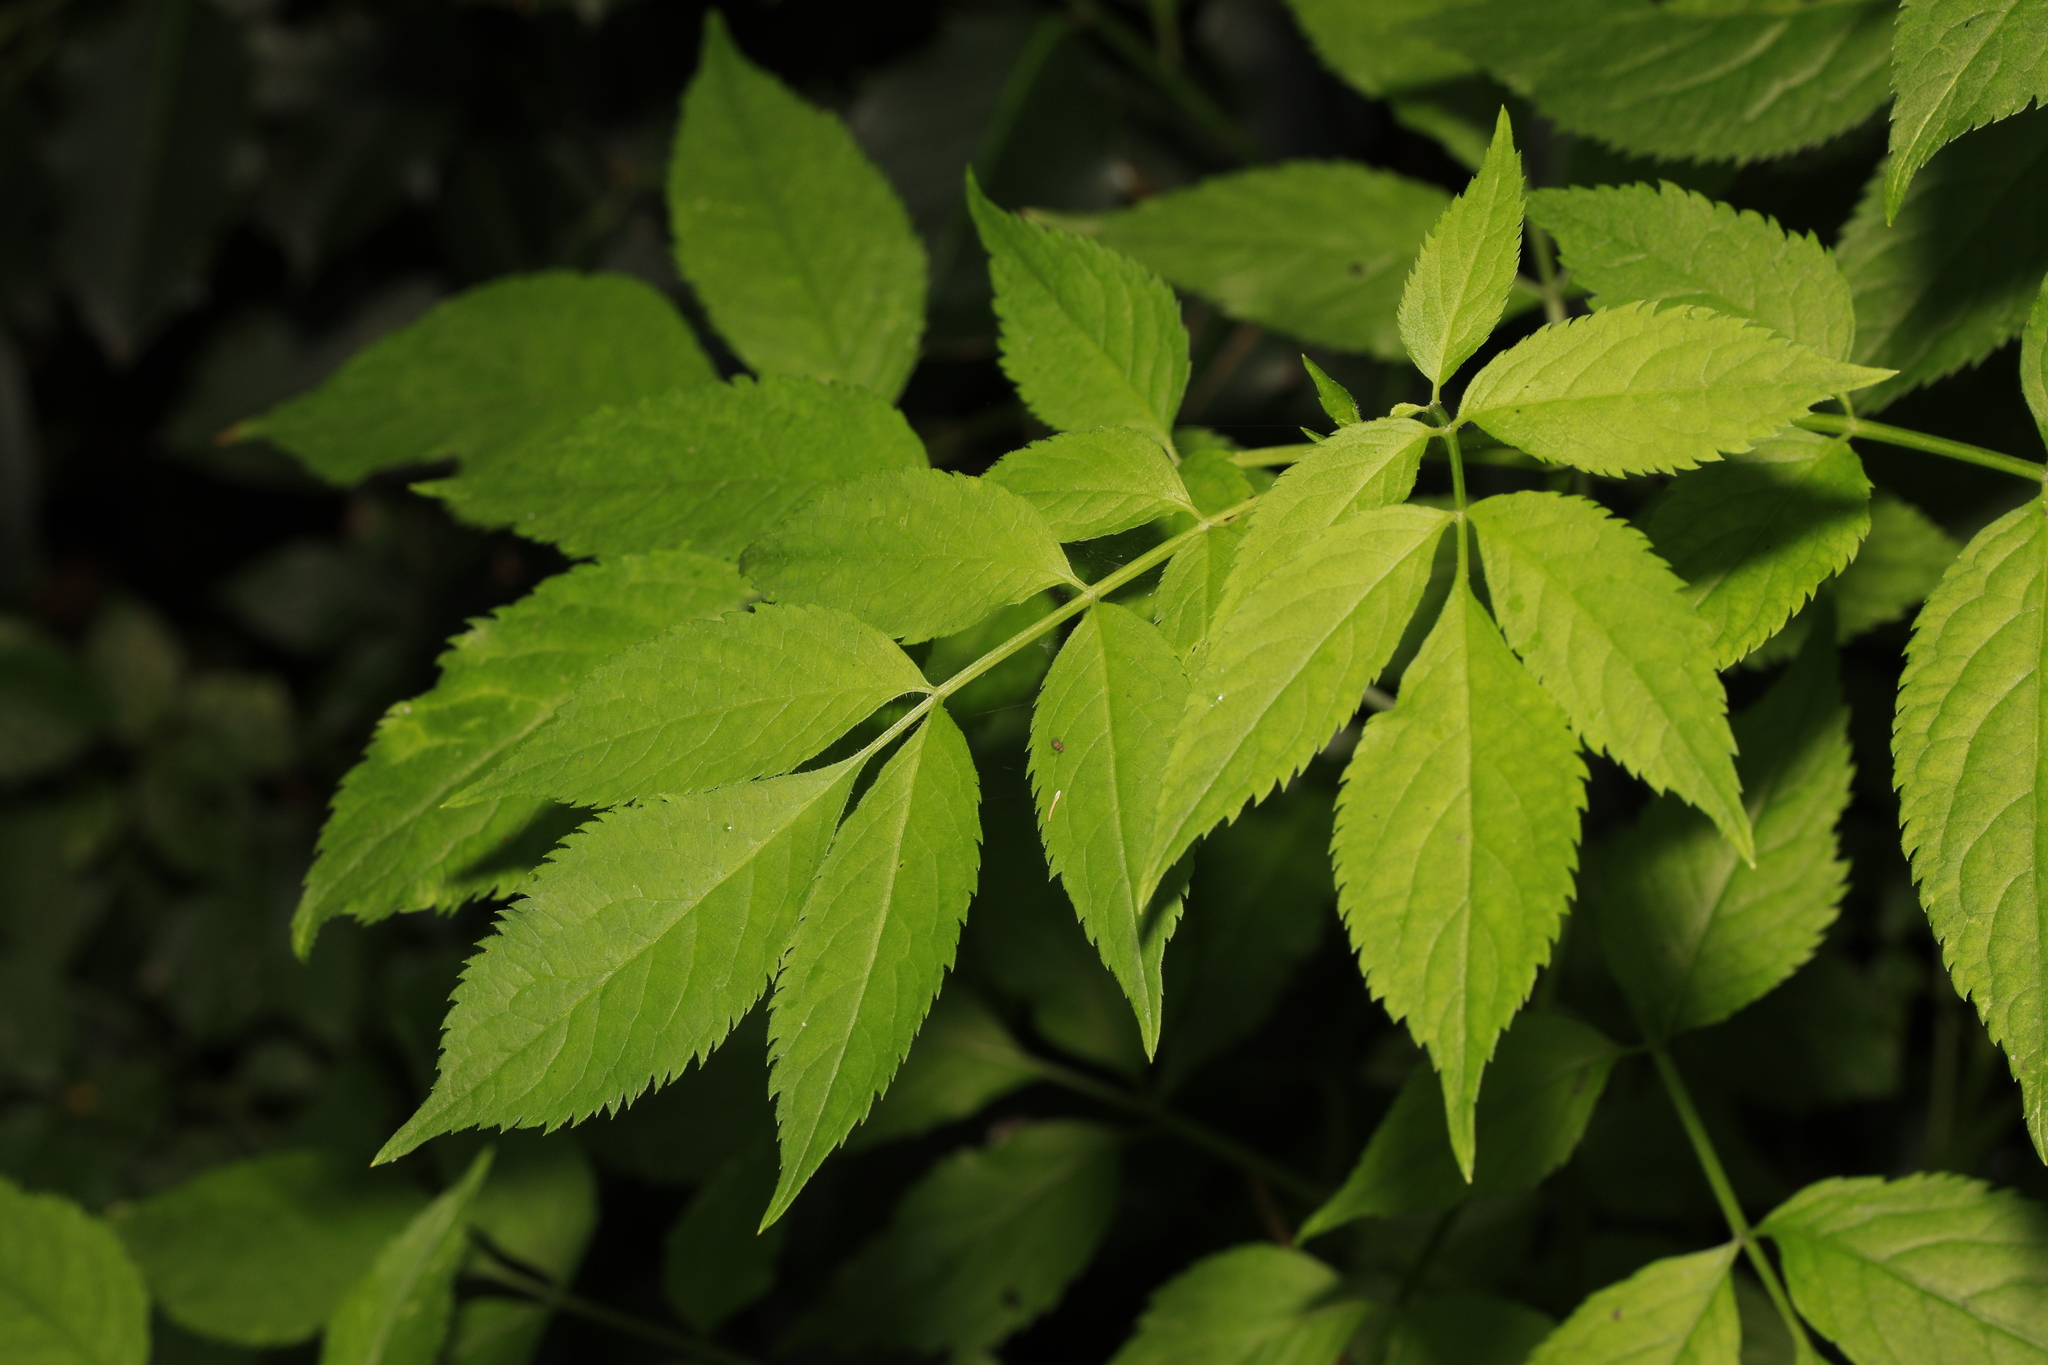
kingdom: Plantae
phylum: Tracheophyta
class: Magnoliopsida
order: Dipsacales
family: Viburnaceae
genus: Sambucus
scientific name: Sambucus nigra
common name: Elder
